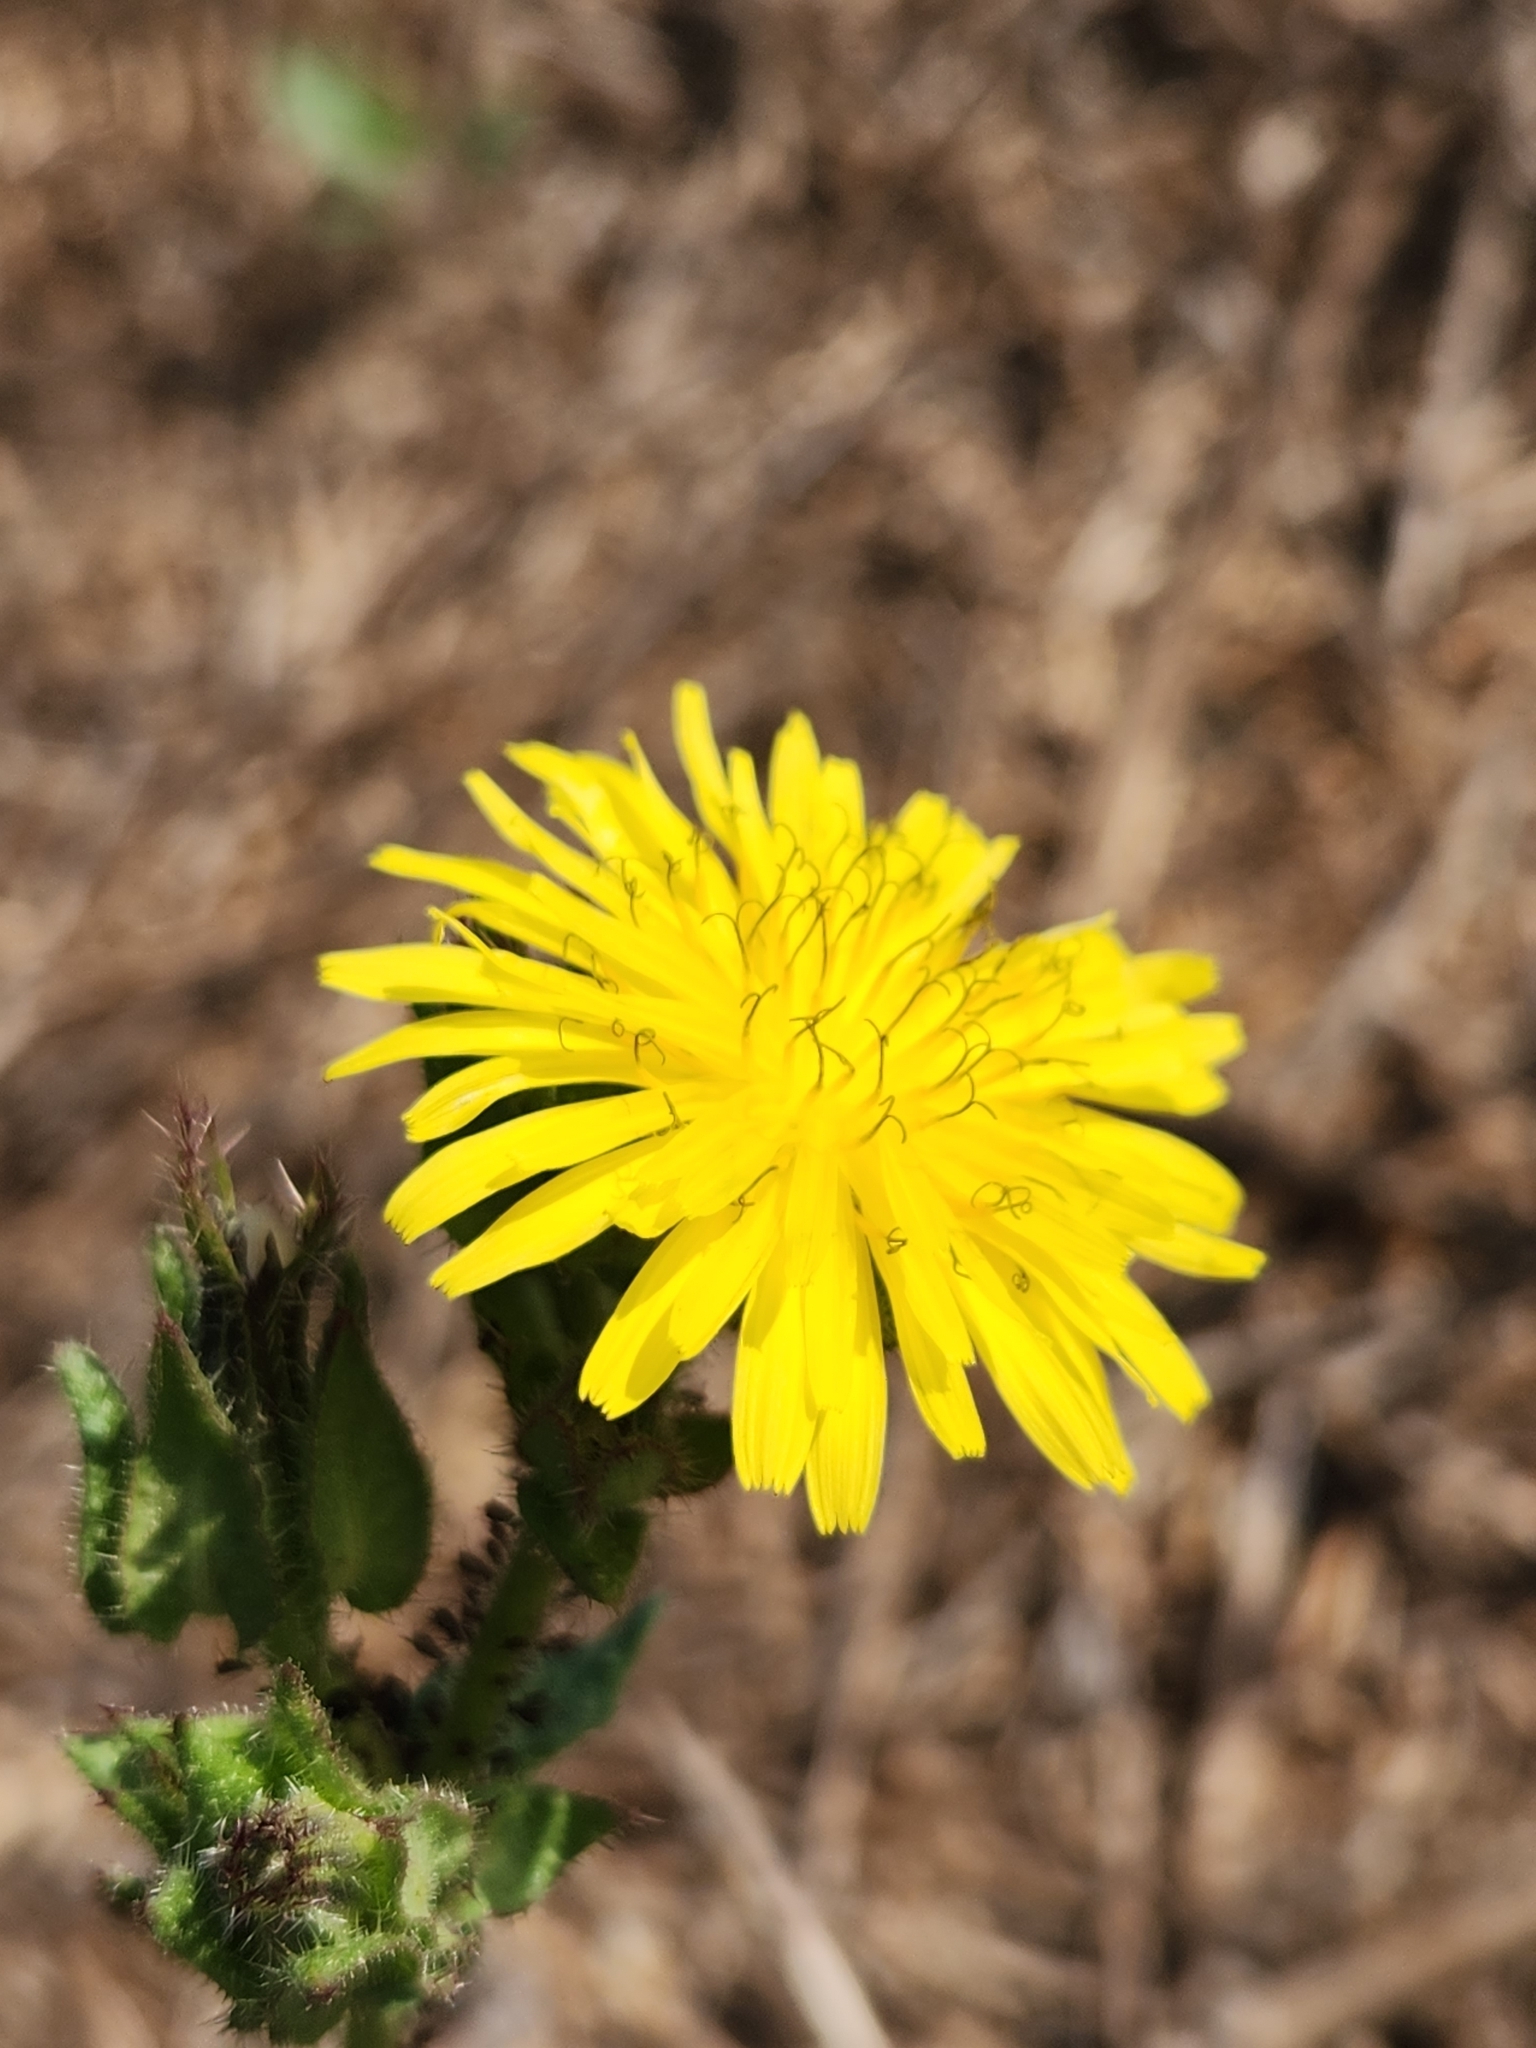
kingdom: Plantae
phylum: Tracheophyta
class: Magnoliopsida
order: Asterales
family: Asteraceae
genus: Helminthotheca
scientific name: Helminthotheca echioides
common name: Ox-tongue
